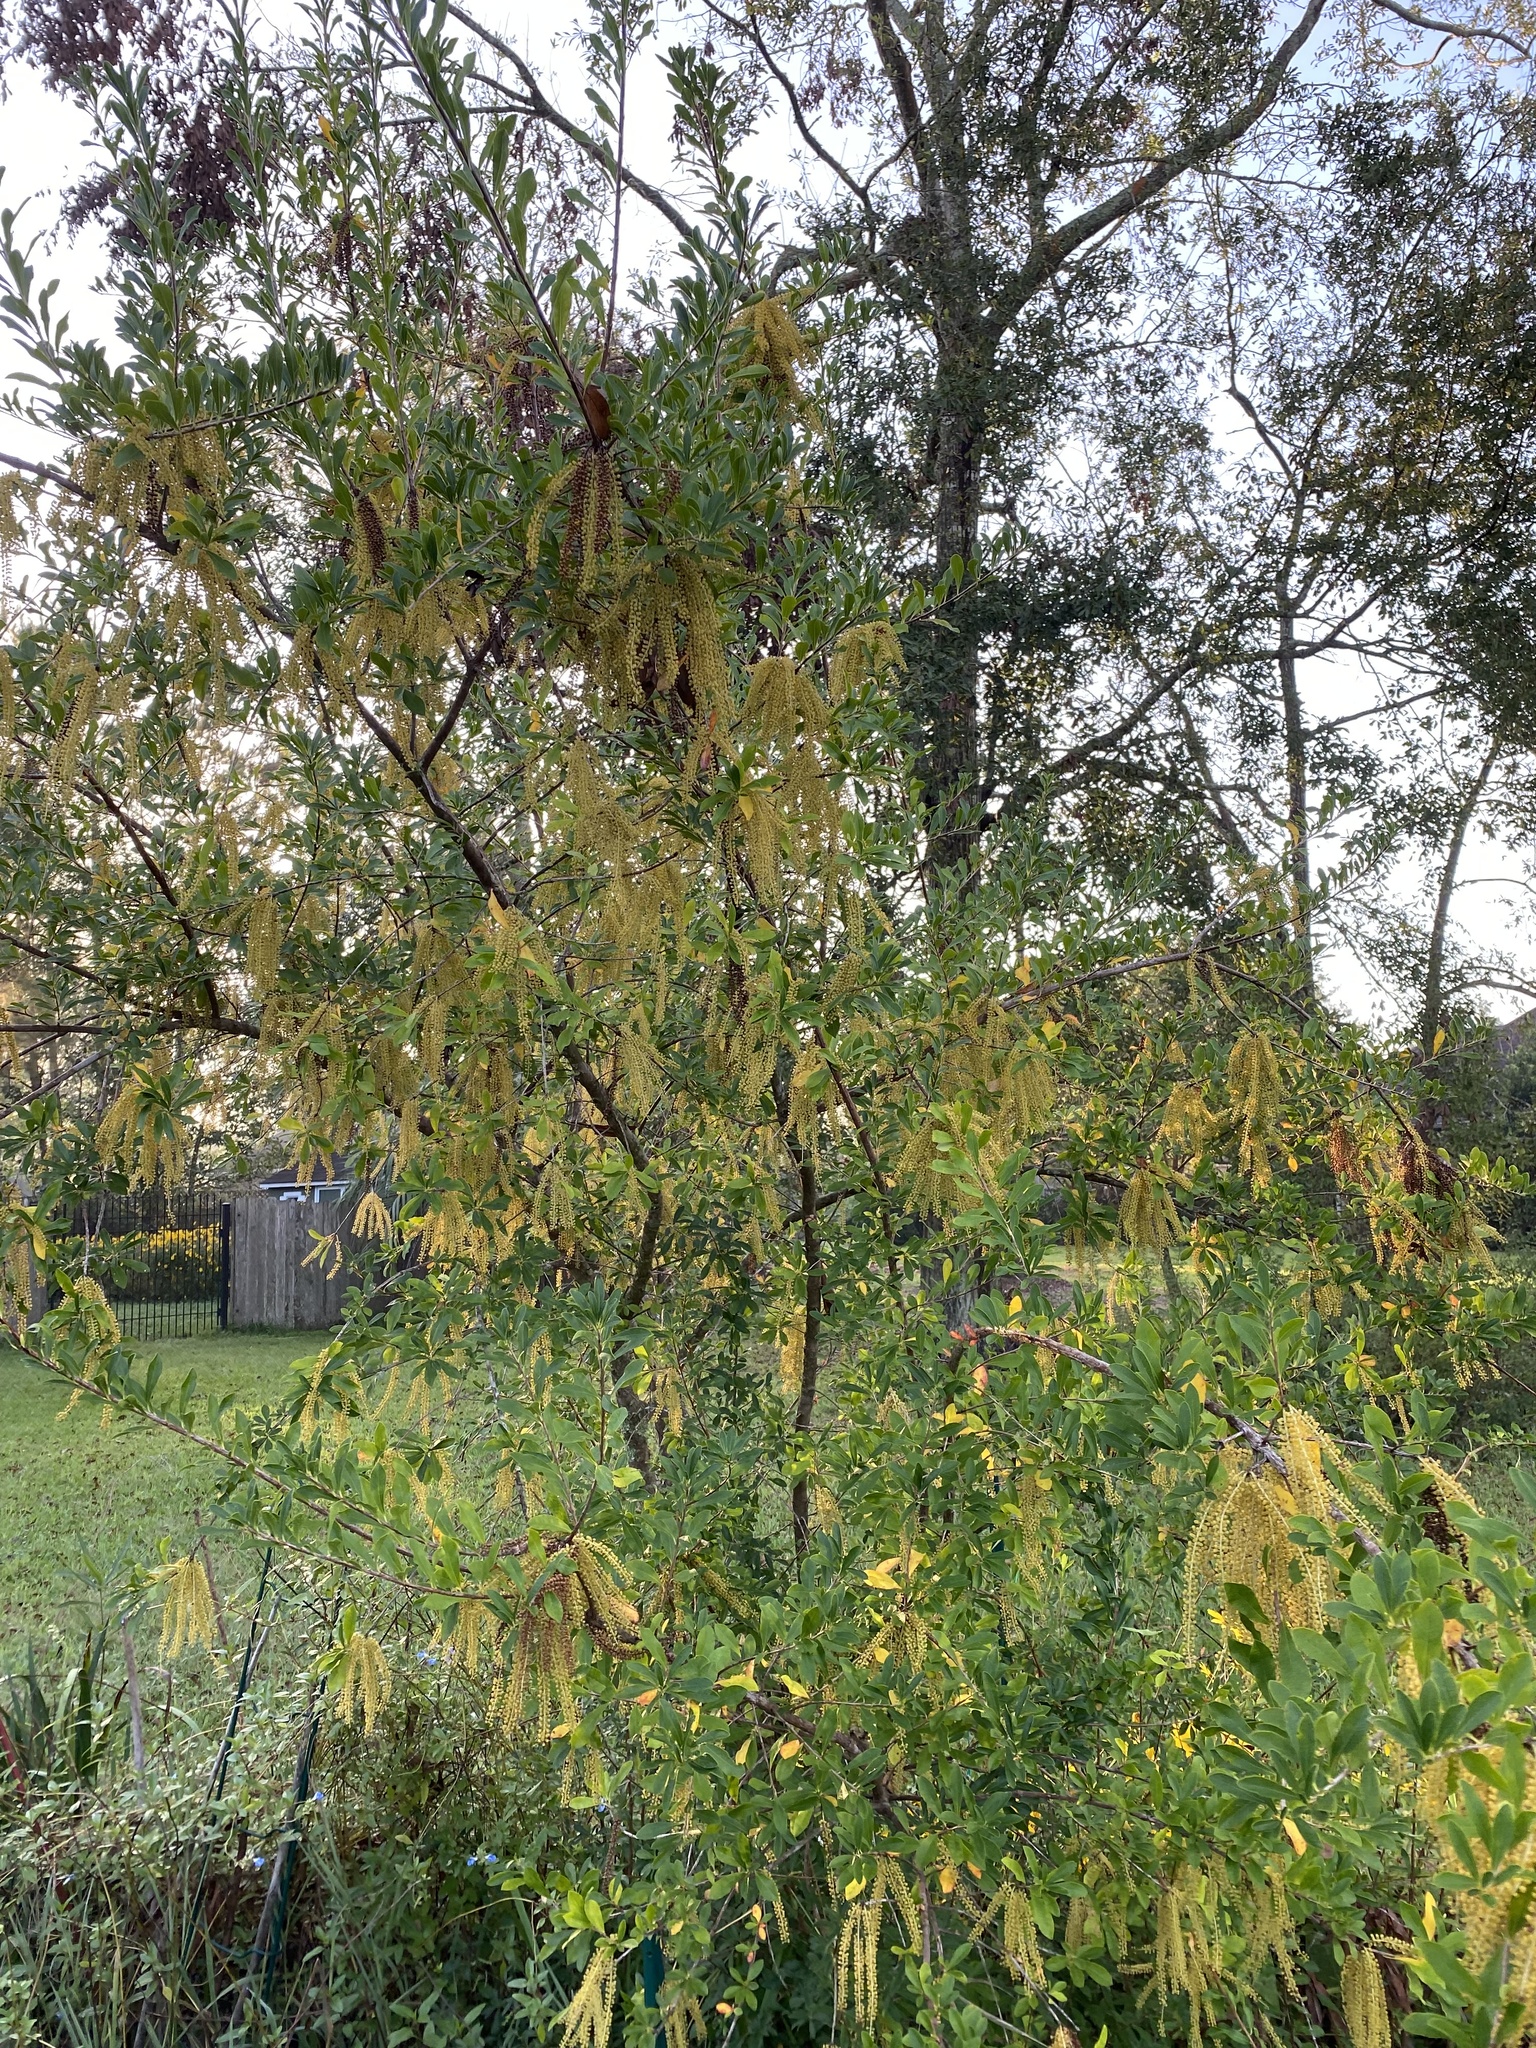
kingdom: Plantae
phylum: Tracheophyta
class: Magnoliopsida
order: Ericales
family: Cyrillaceae
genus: Cyrilla
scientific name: Cyrilla racemiflora
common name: Black titi
